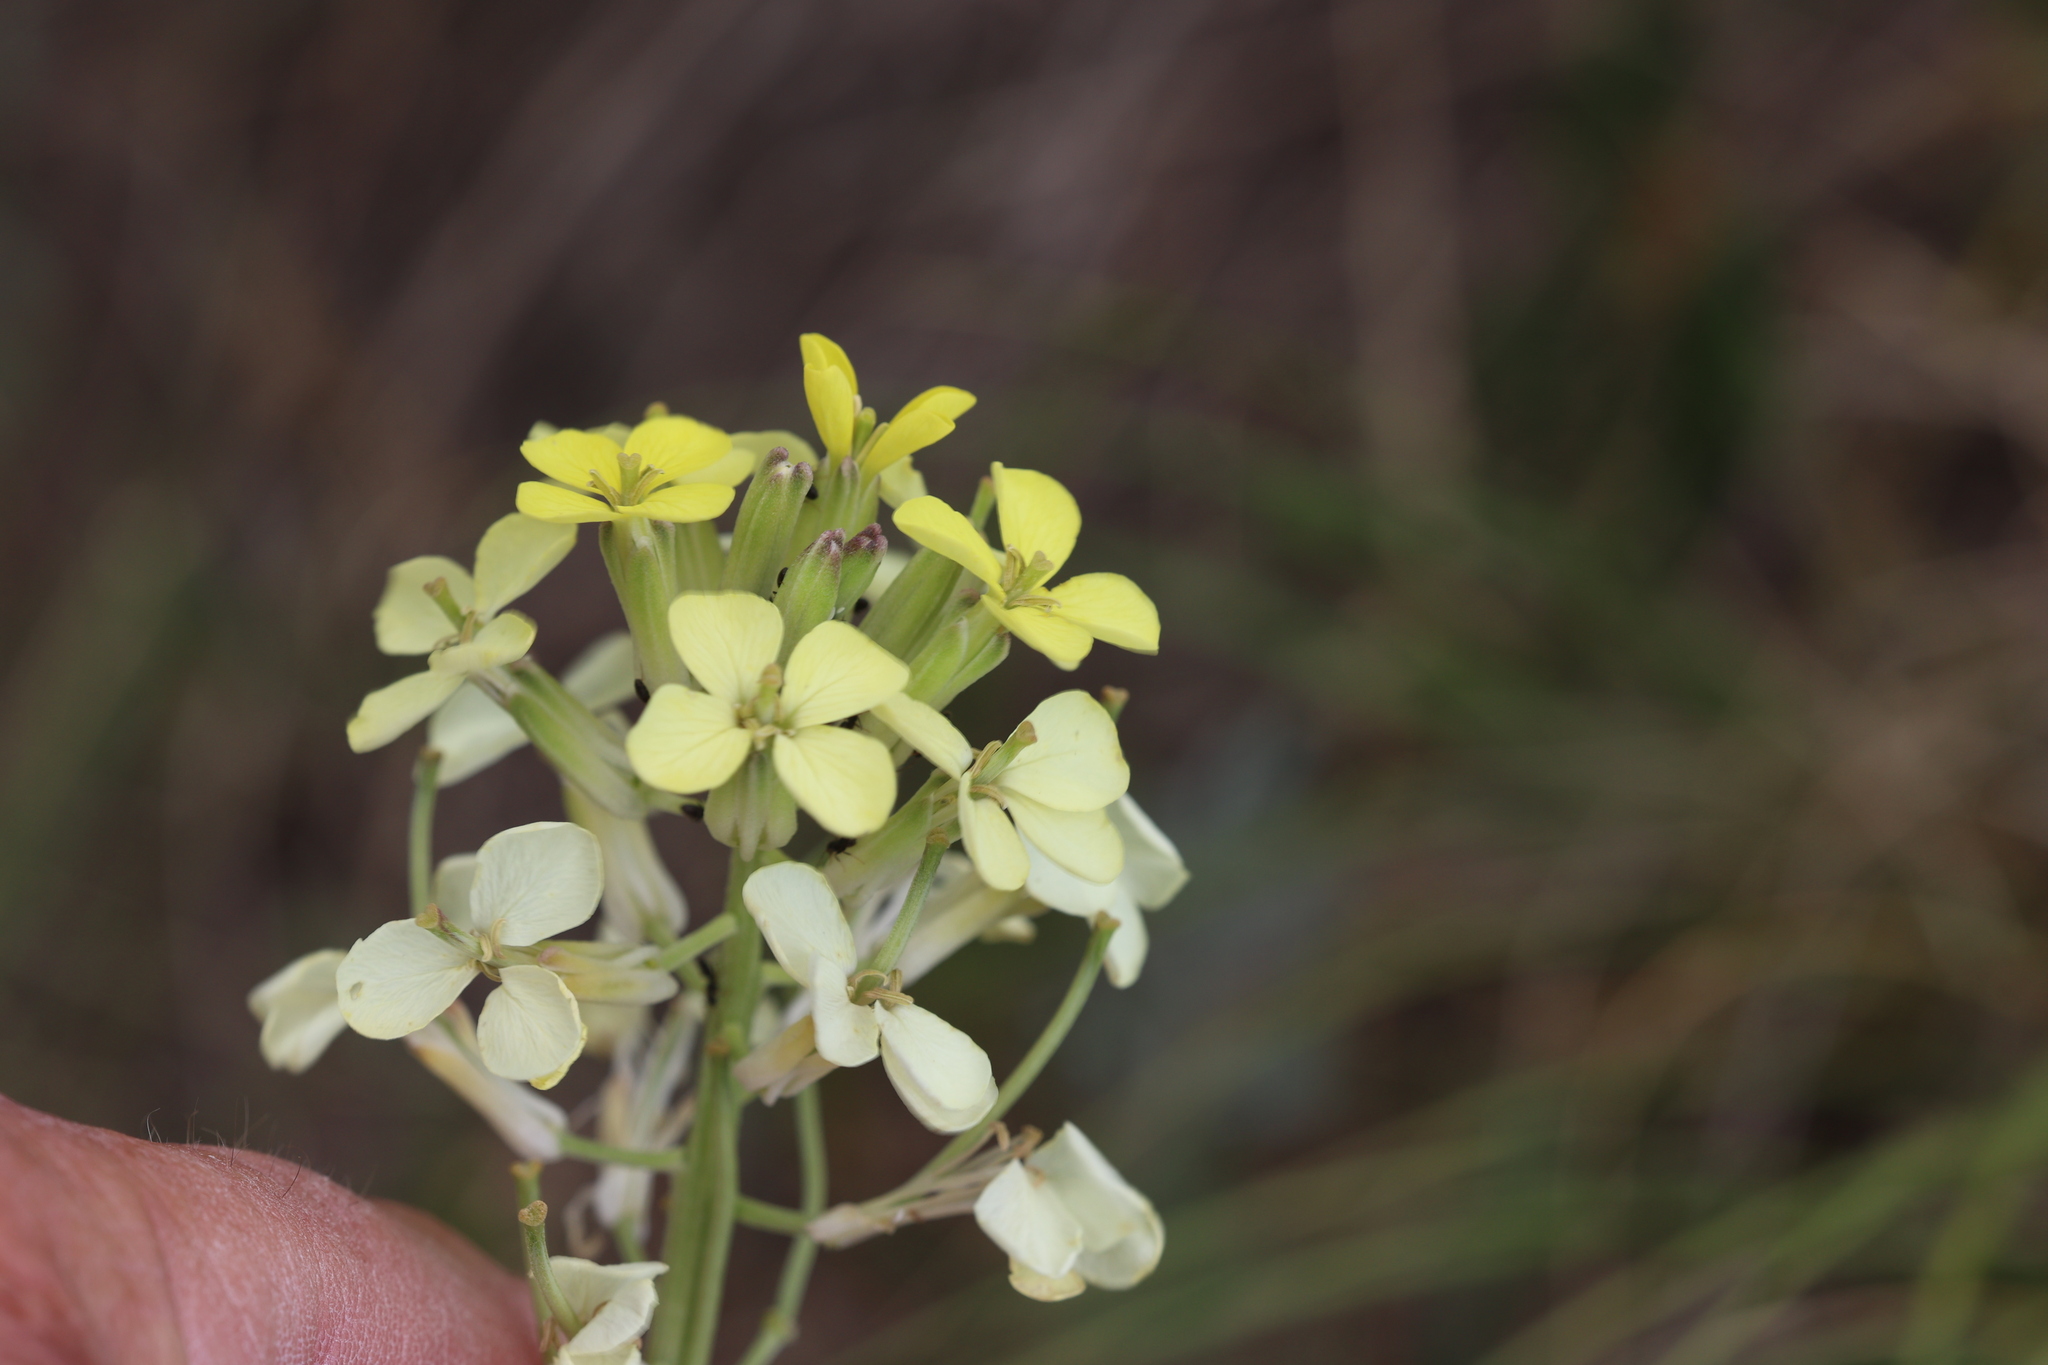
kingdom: Plantae
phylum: Tracheophyta
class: Magnoliopsida
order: Brassicales
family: Brassicaceae
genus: Erysimum
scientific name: Erysimum capitatum
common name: Western wallflower
